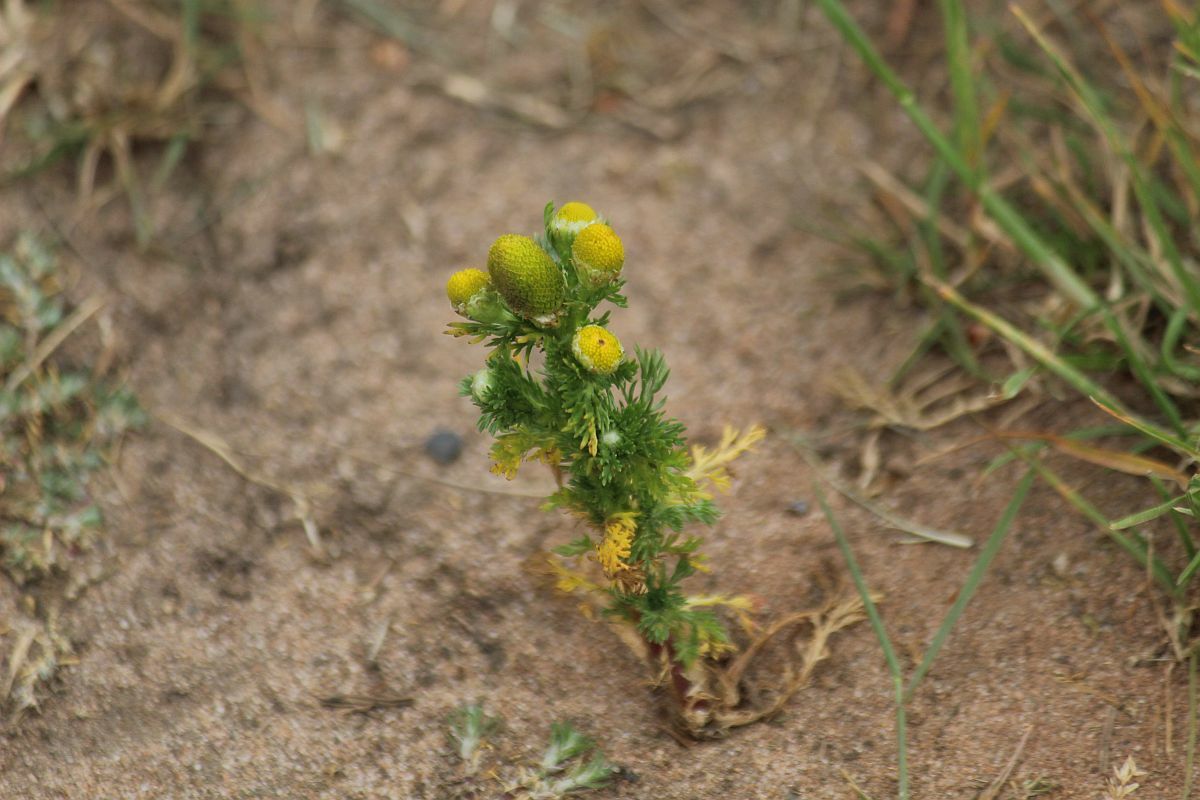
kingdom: Plantae
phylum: Tracheophyta
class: Magnoliopsida
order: Asterales
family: Asteraceae
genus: Matricaria
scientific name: Matricaria discoidea
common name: Disc mayweed
